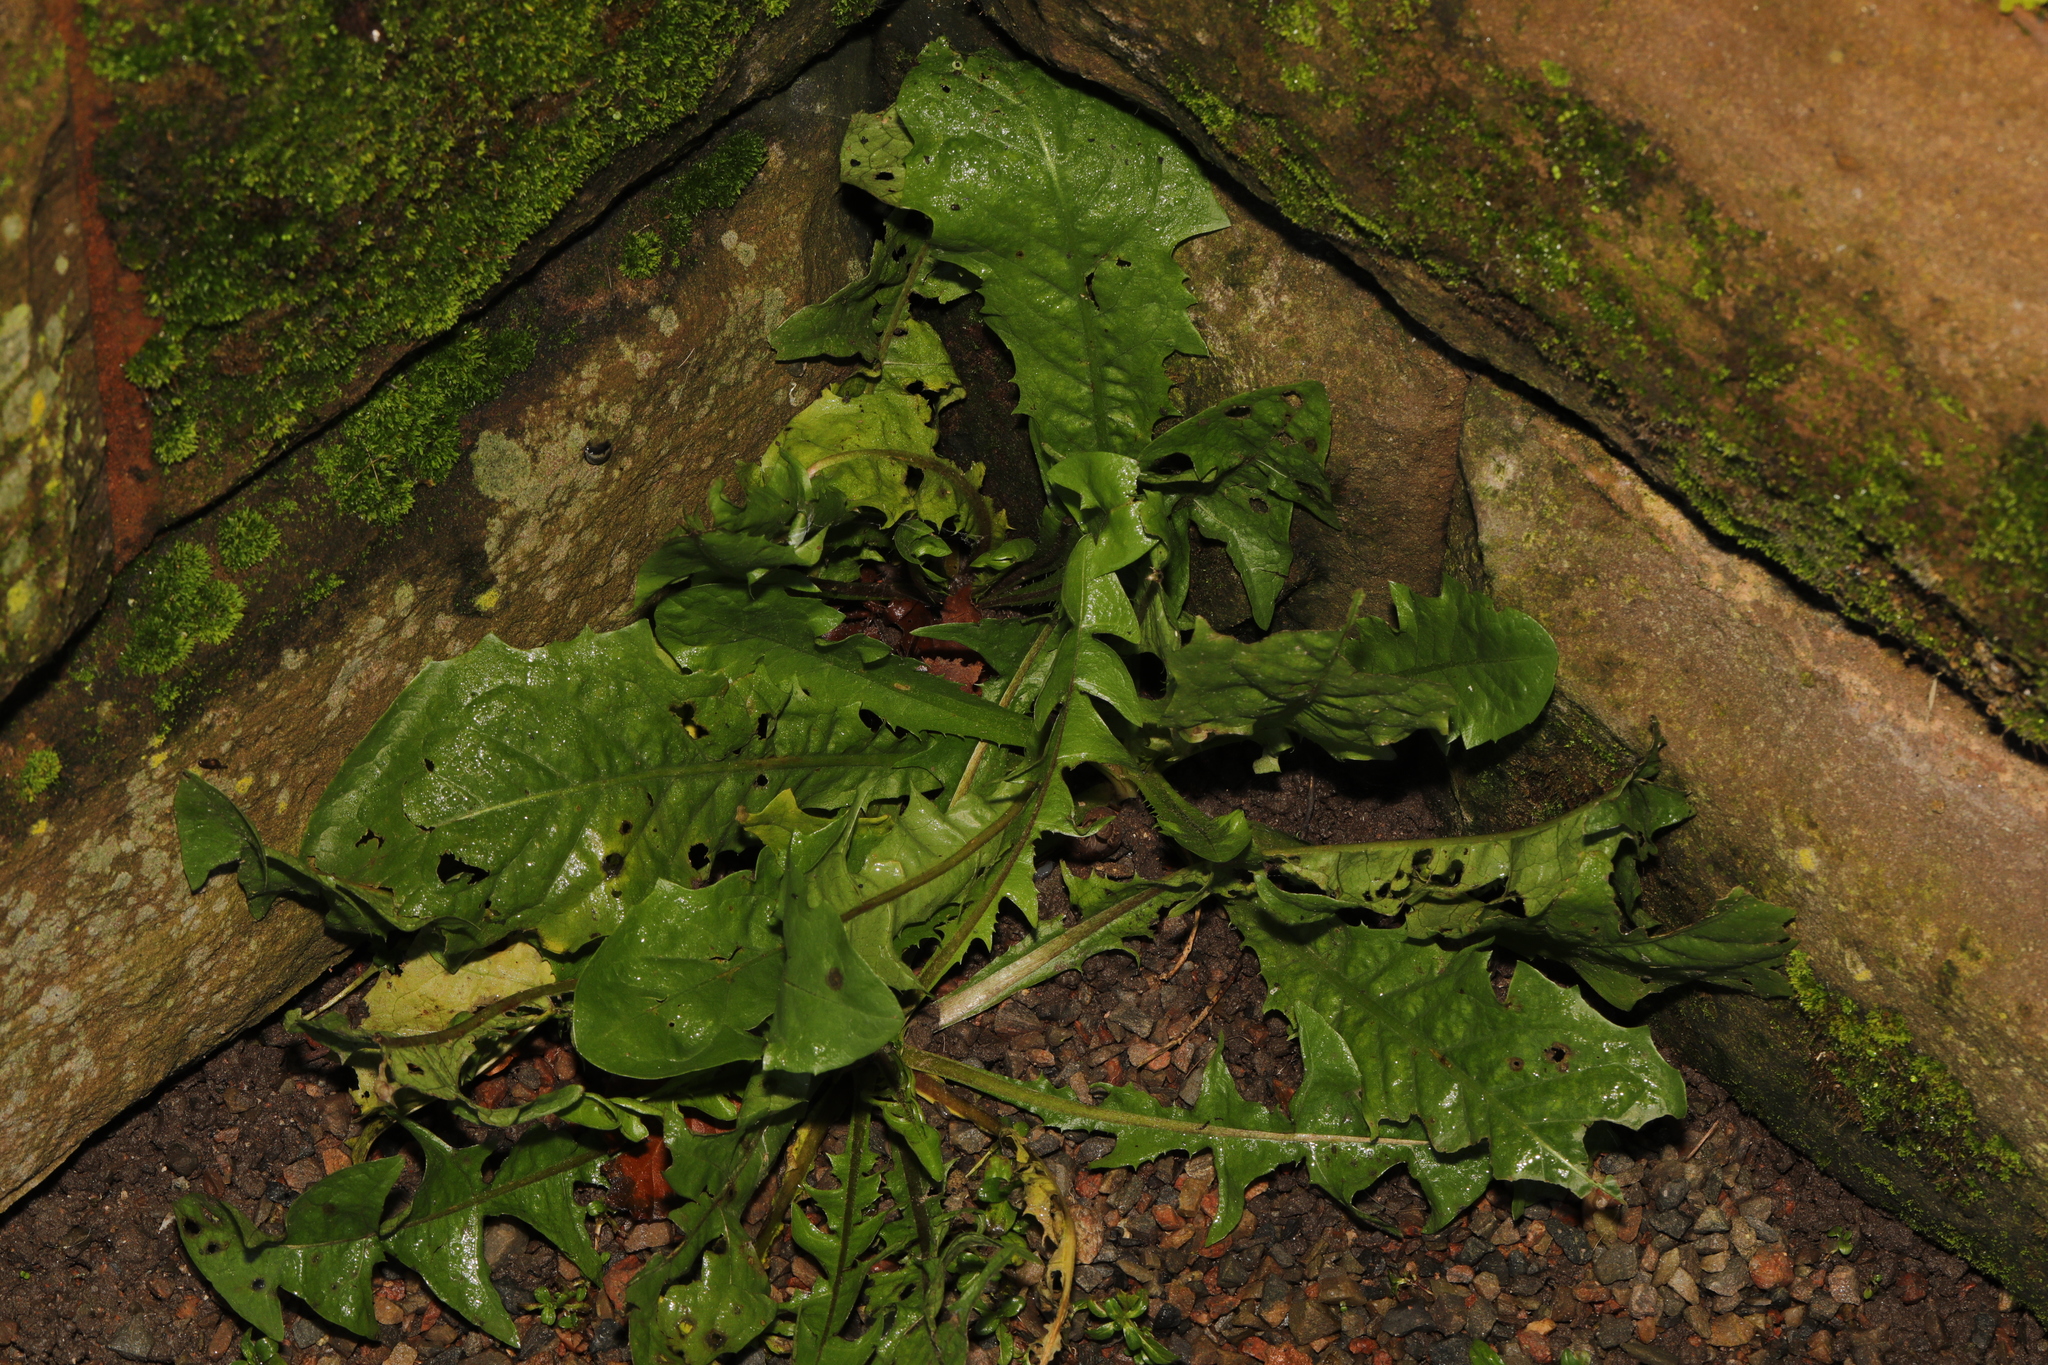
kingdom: Plantae
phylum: Tracheophyta
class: Magnoliopsida
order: Asterales
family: Asteraceae
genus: Taraxacum
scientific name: Taraxacum officinale
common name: Common dandelion
